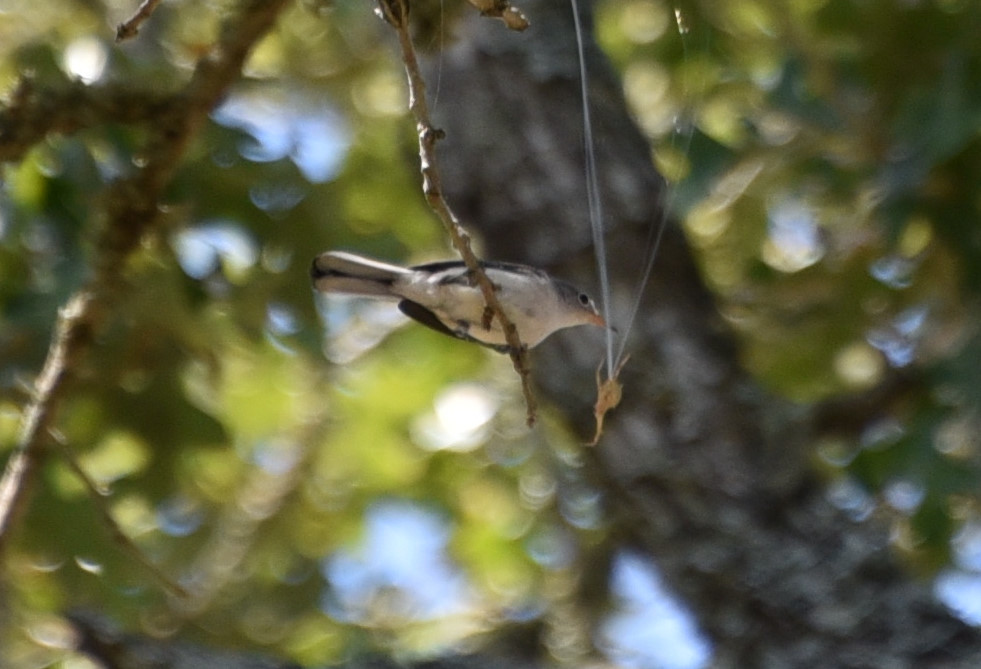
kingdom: Animalia
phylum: Chordata
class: Aves
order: Passeriformes
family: Polioptilidae
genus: Polioptila
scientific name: Polioptila caerulea
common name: Blue-gray gnatcatcher
